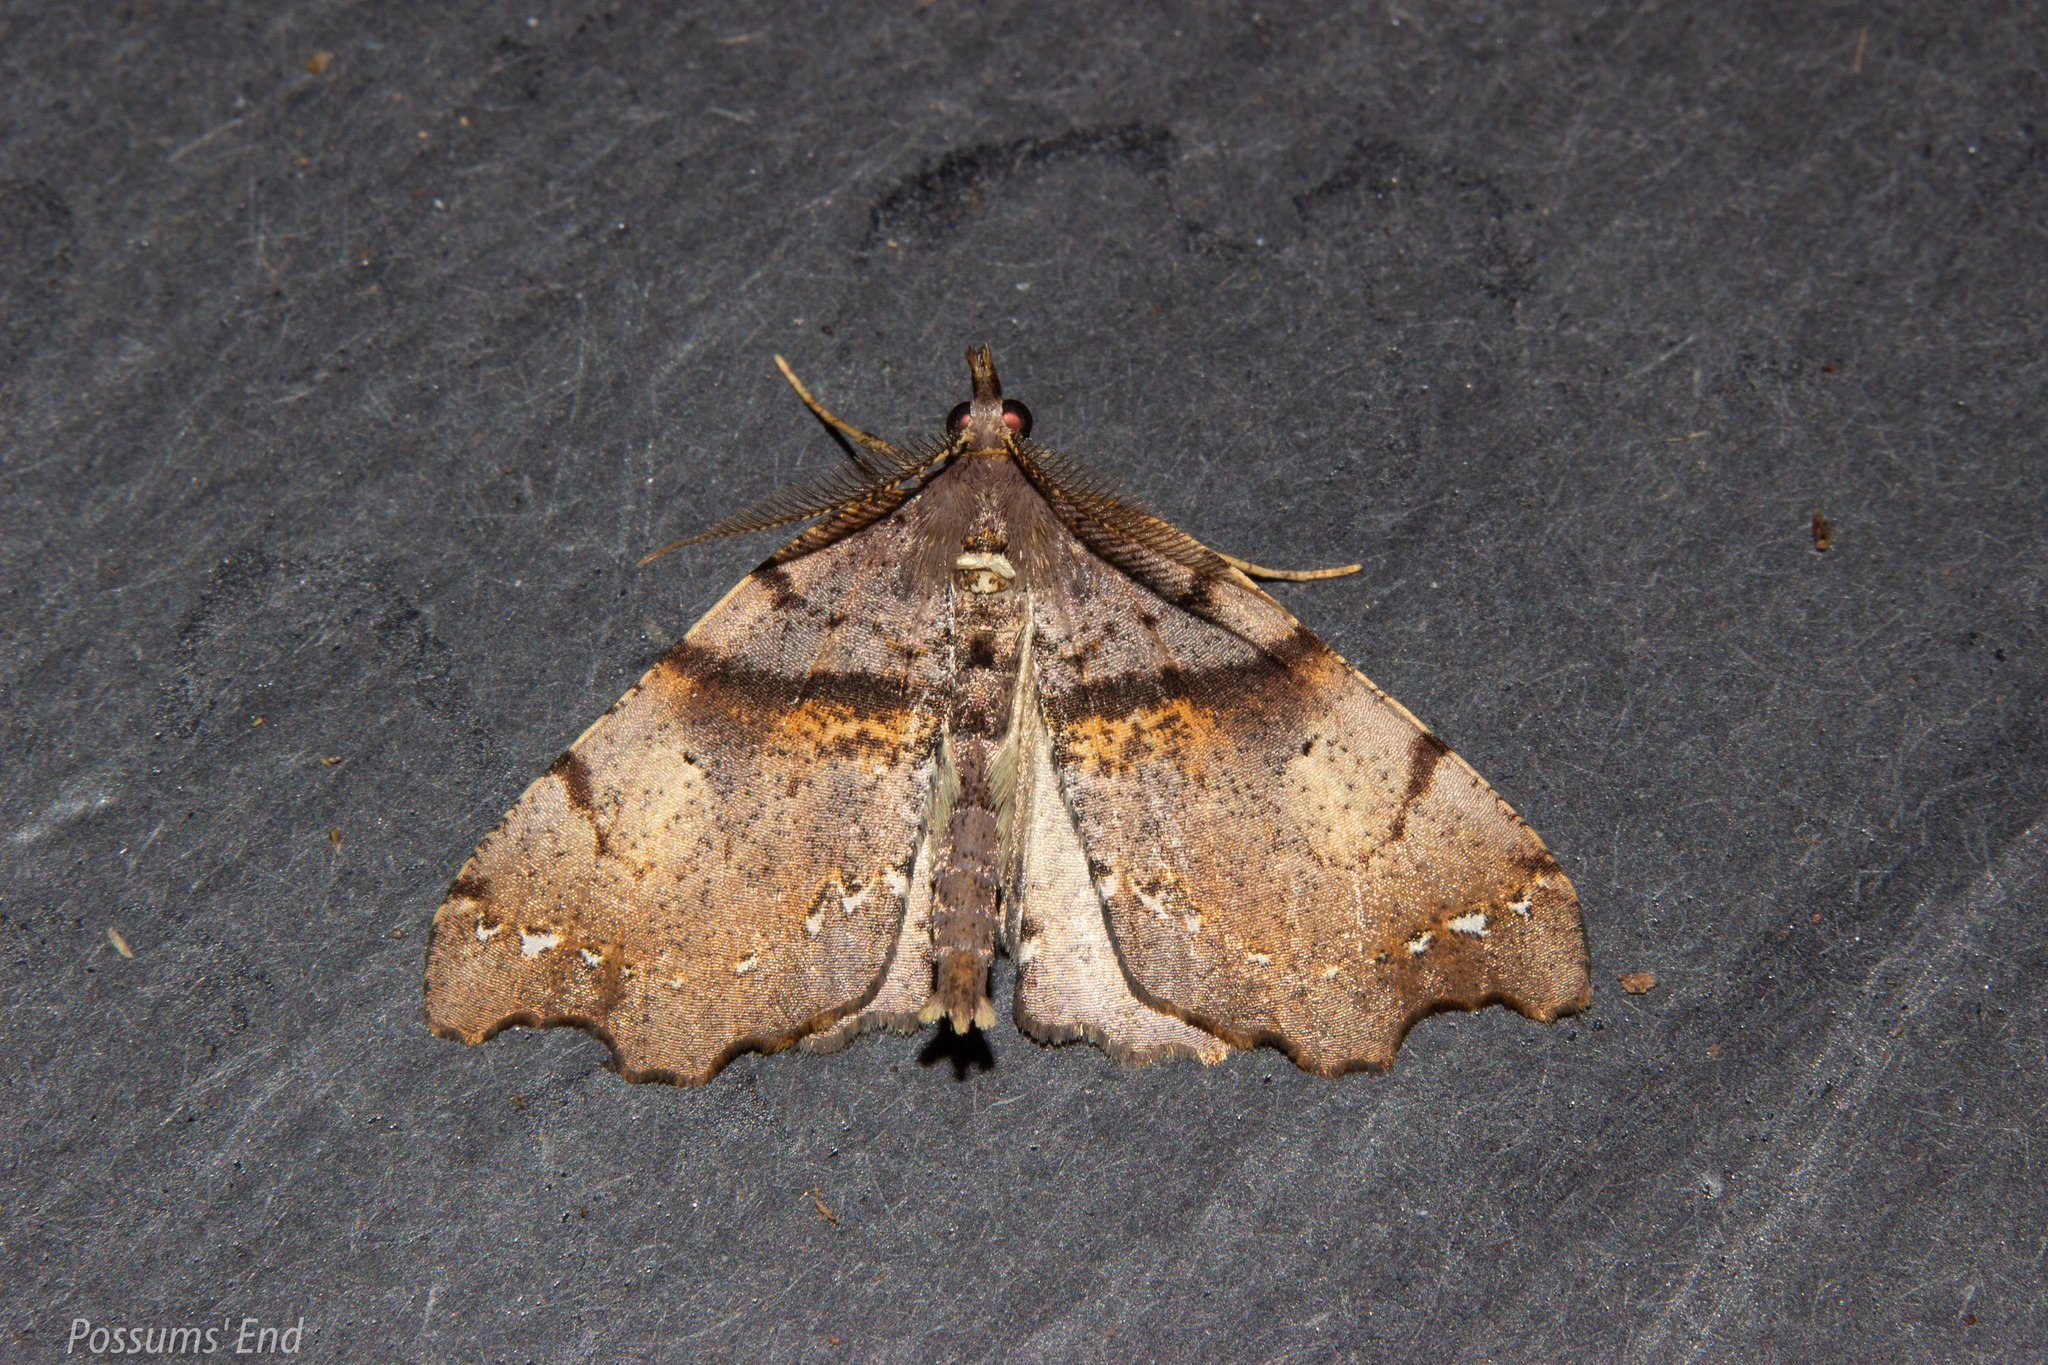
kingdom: Animalia
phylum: Arthropoda
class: Insecta
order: Lepidoptera
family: Geometridae
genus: Chalastra
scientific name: Chalastra pellurgata
